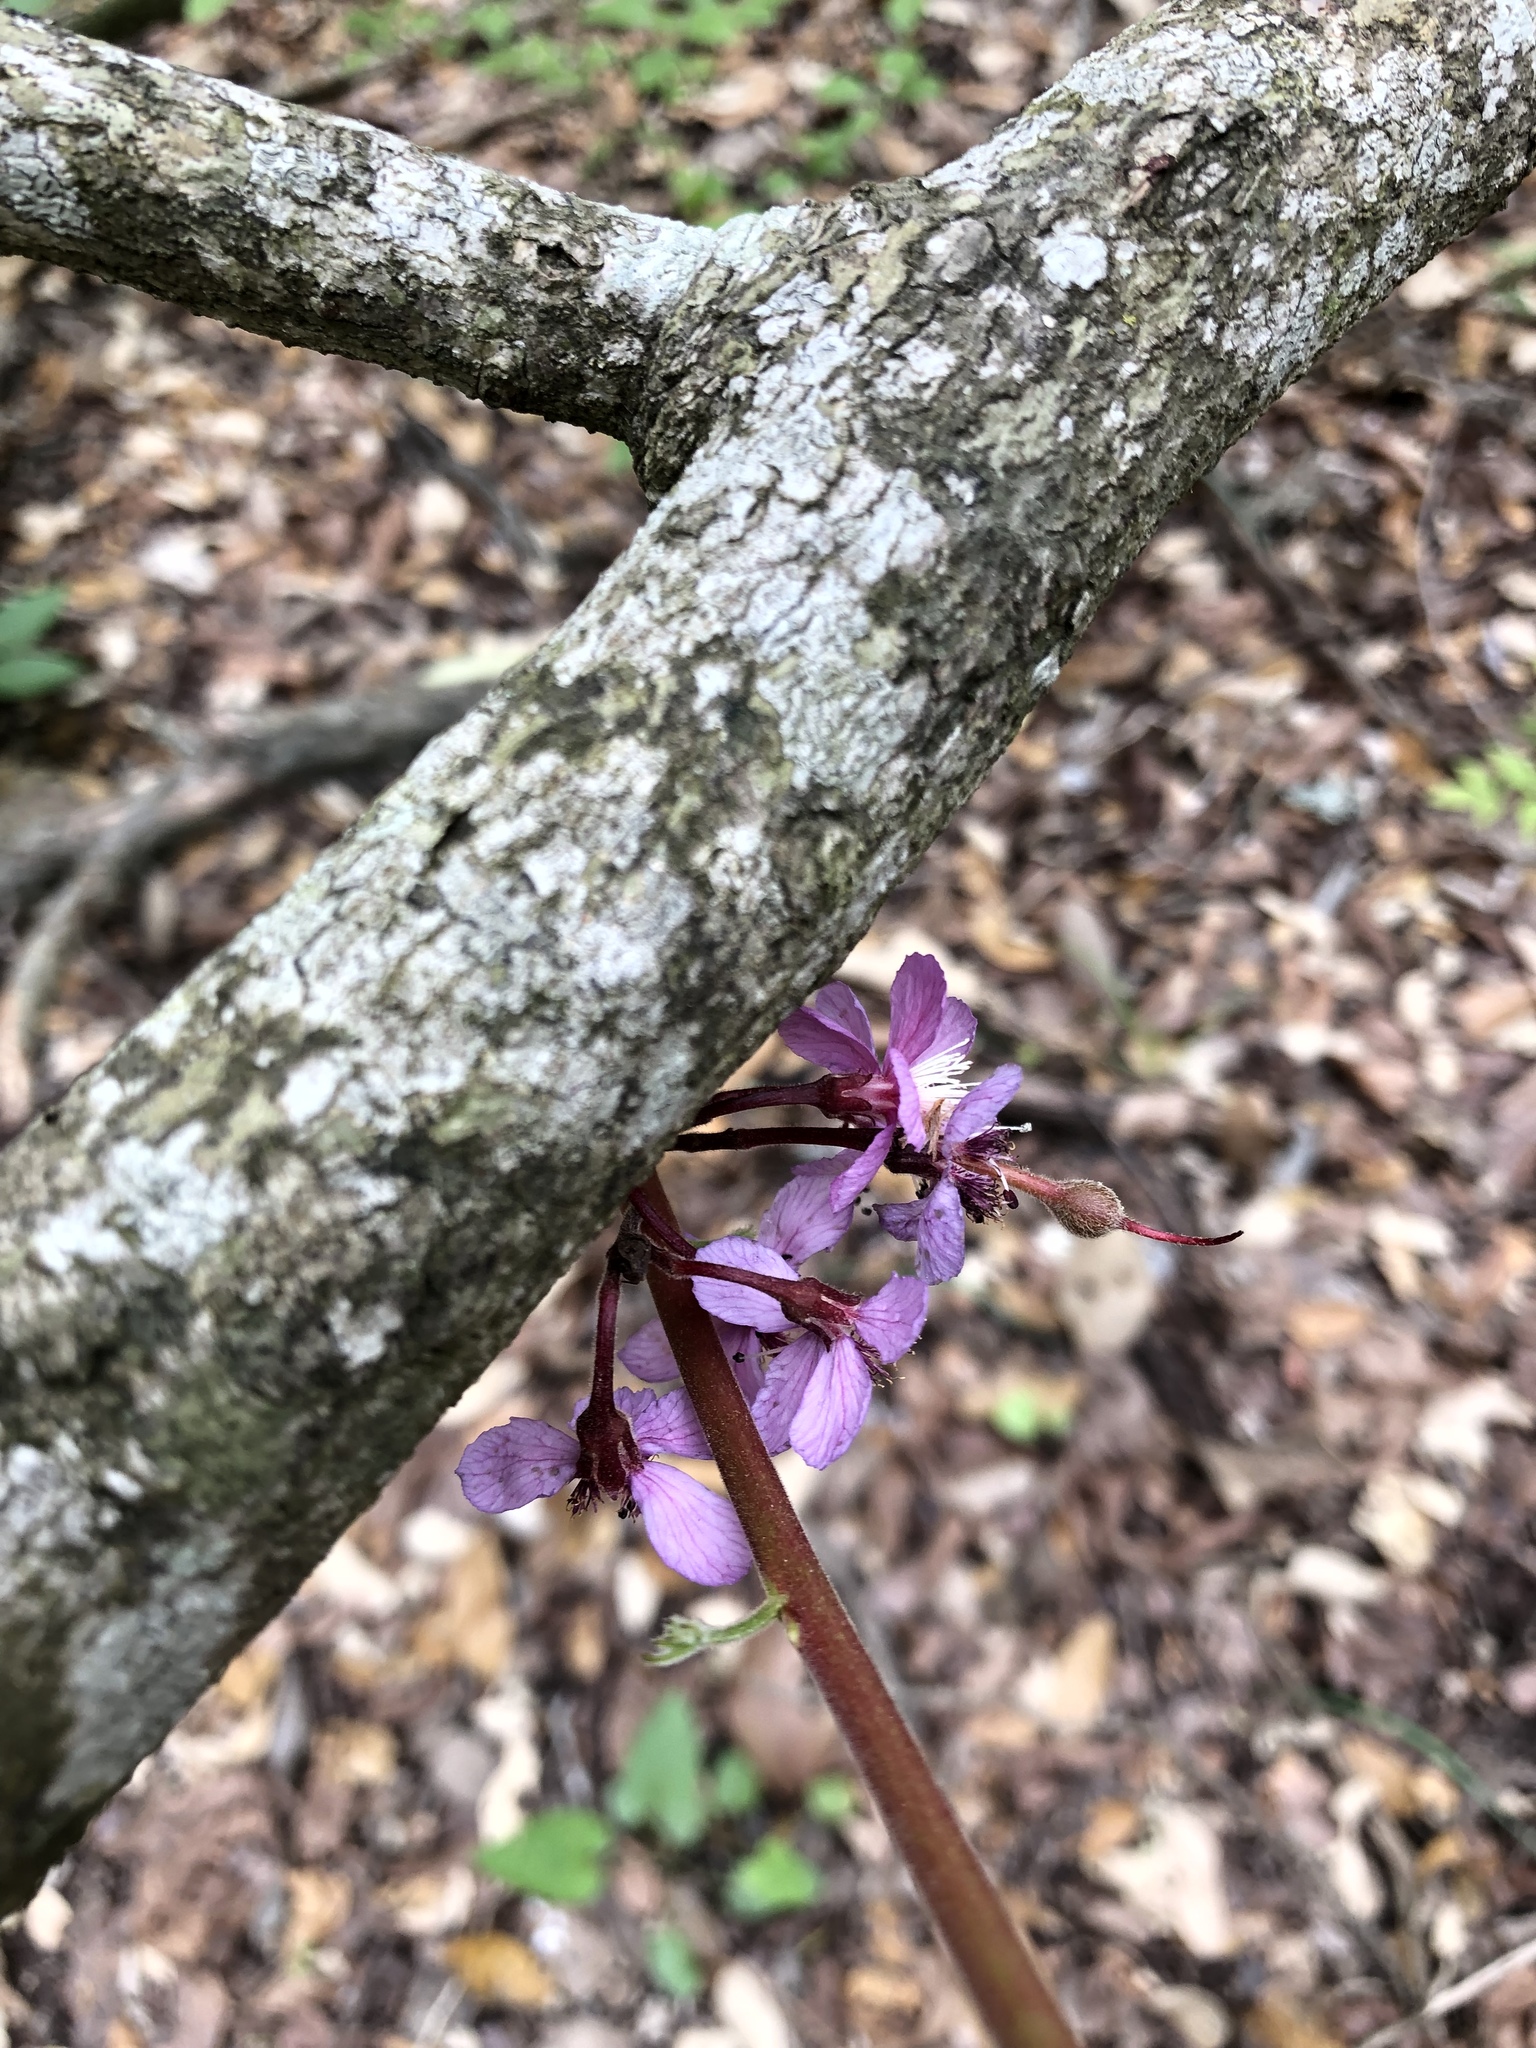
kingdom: Plantae
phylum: Tracheophyta
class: Magnoliopsida
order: Sapindales
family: Sapindaceae
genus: Ungnadia
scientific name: Ungnadia speciosa
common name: Texas-buckeye
